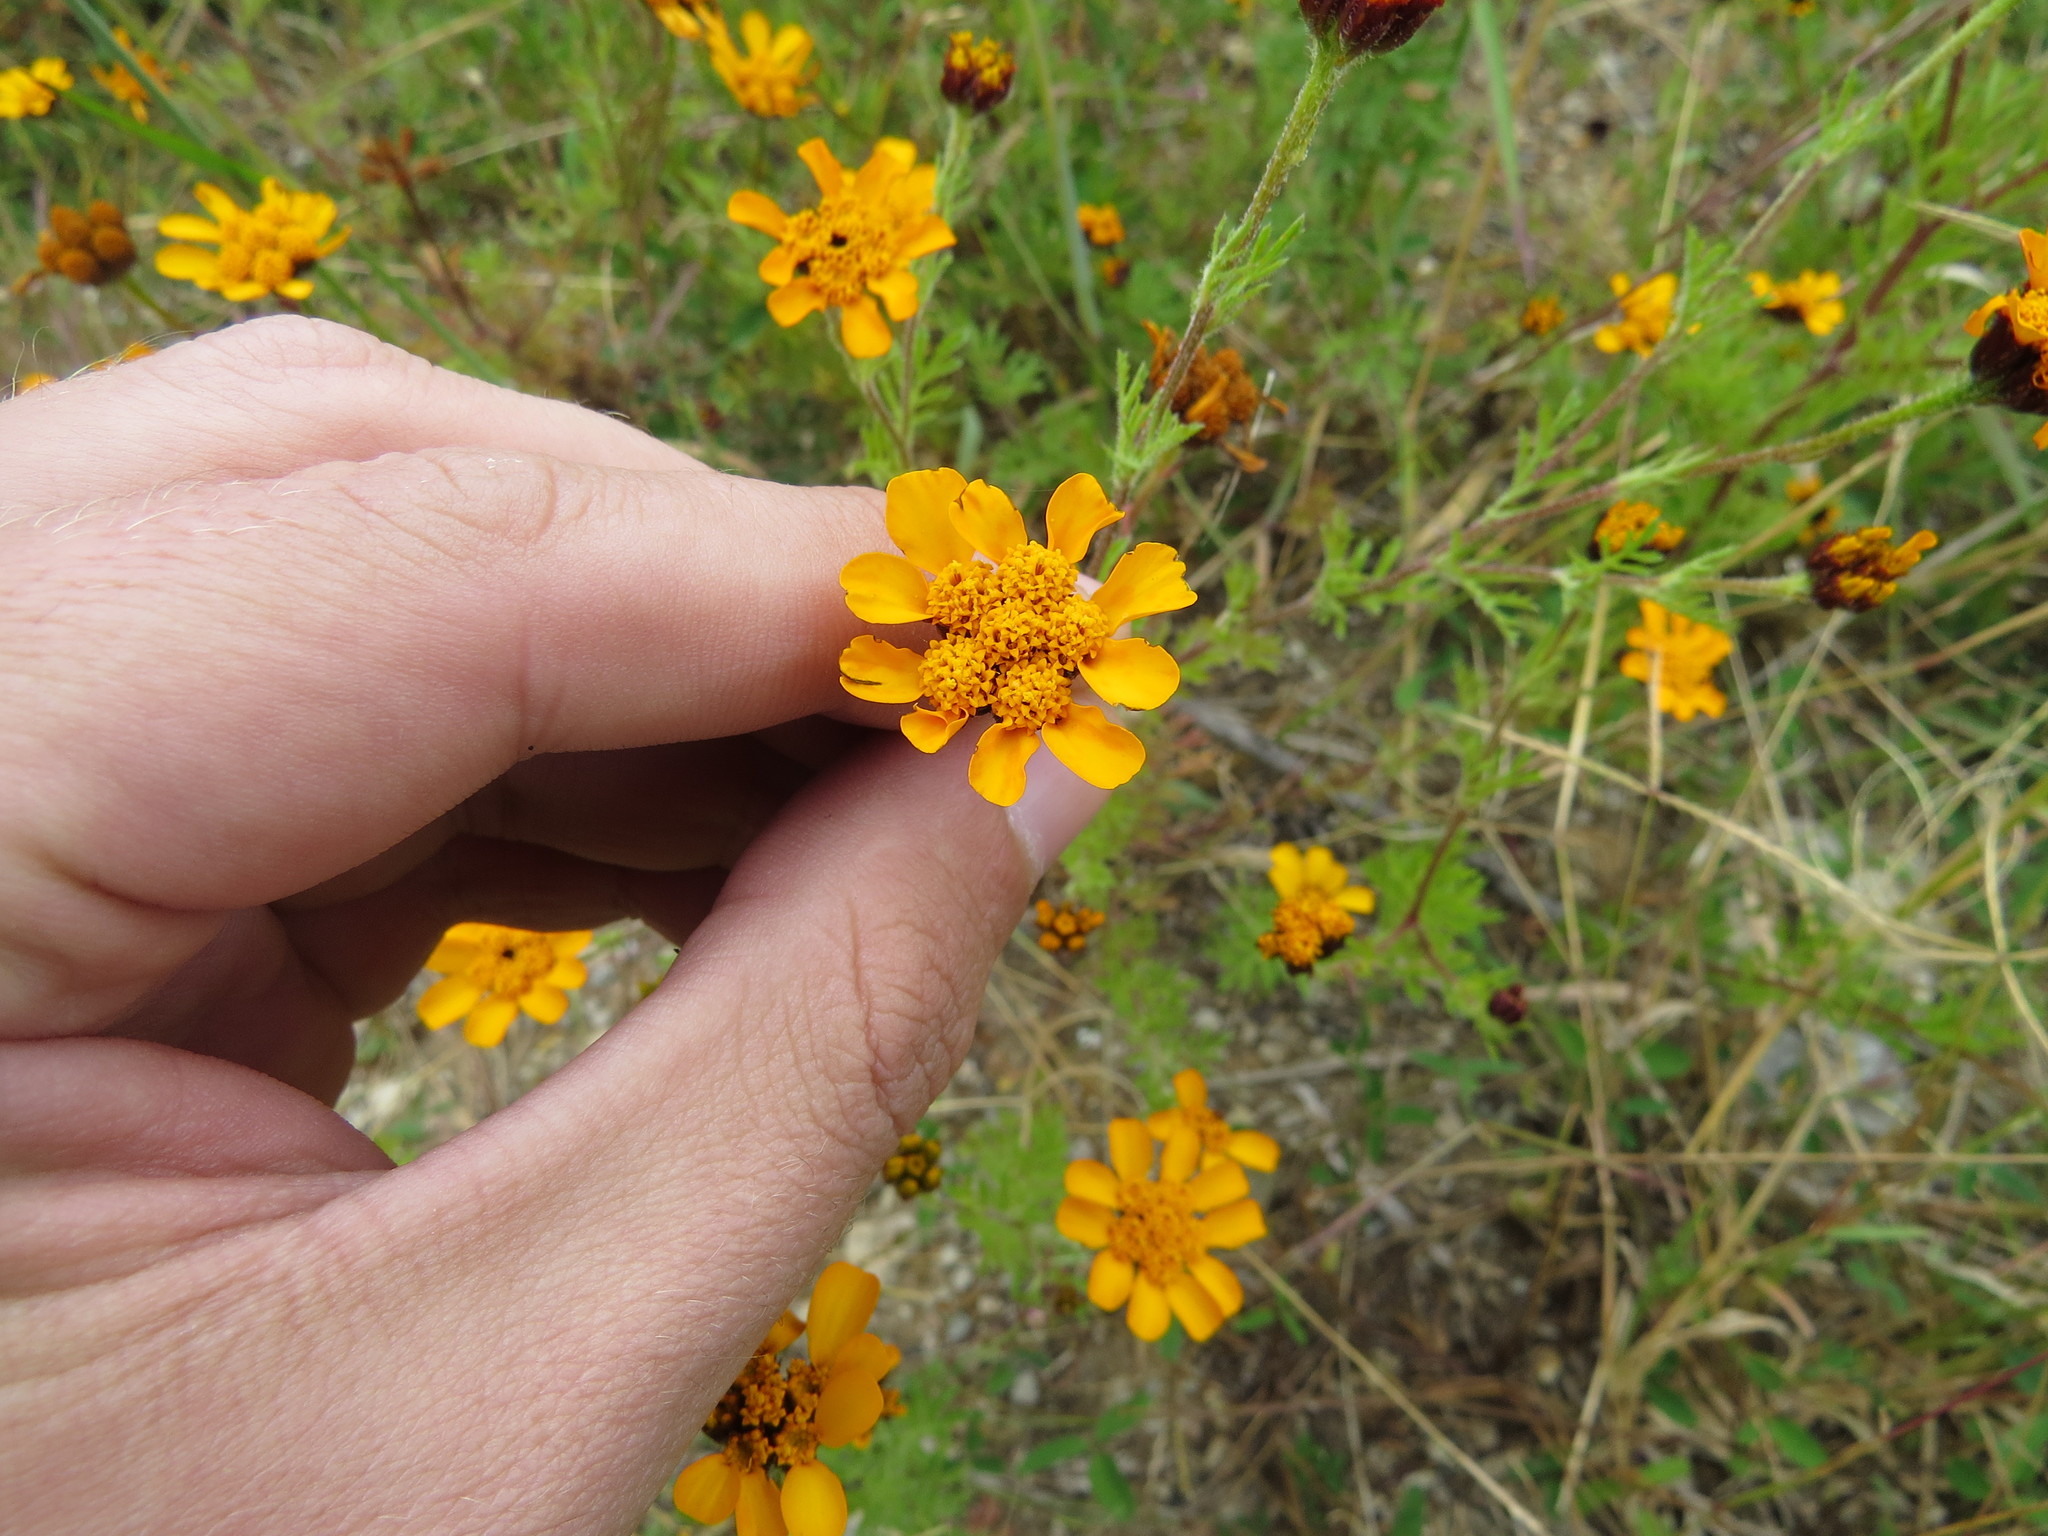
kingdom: Plantae
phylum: Tracheophyta
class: Magnoliopsida
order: Asterales
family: Asteraceae
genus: Dyssodia
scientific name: Dyssodia decipiens
